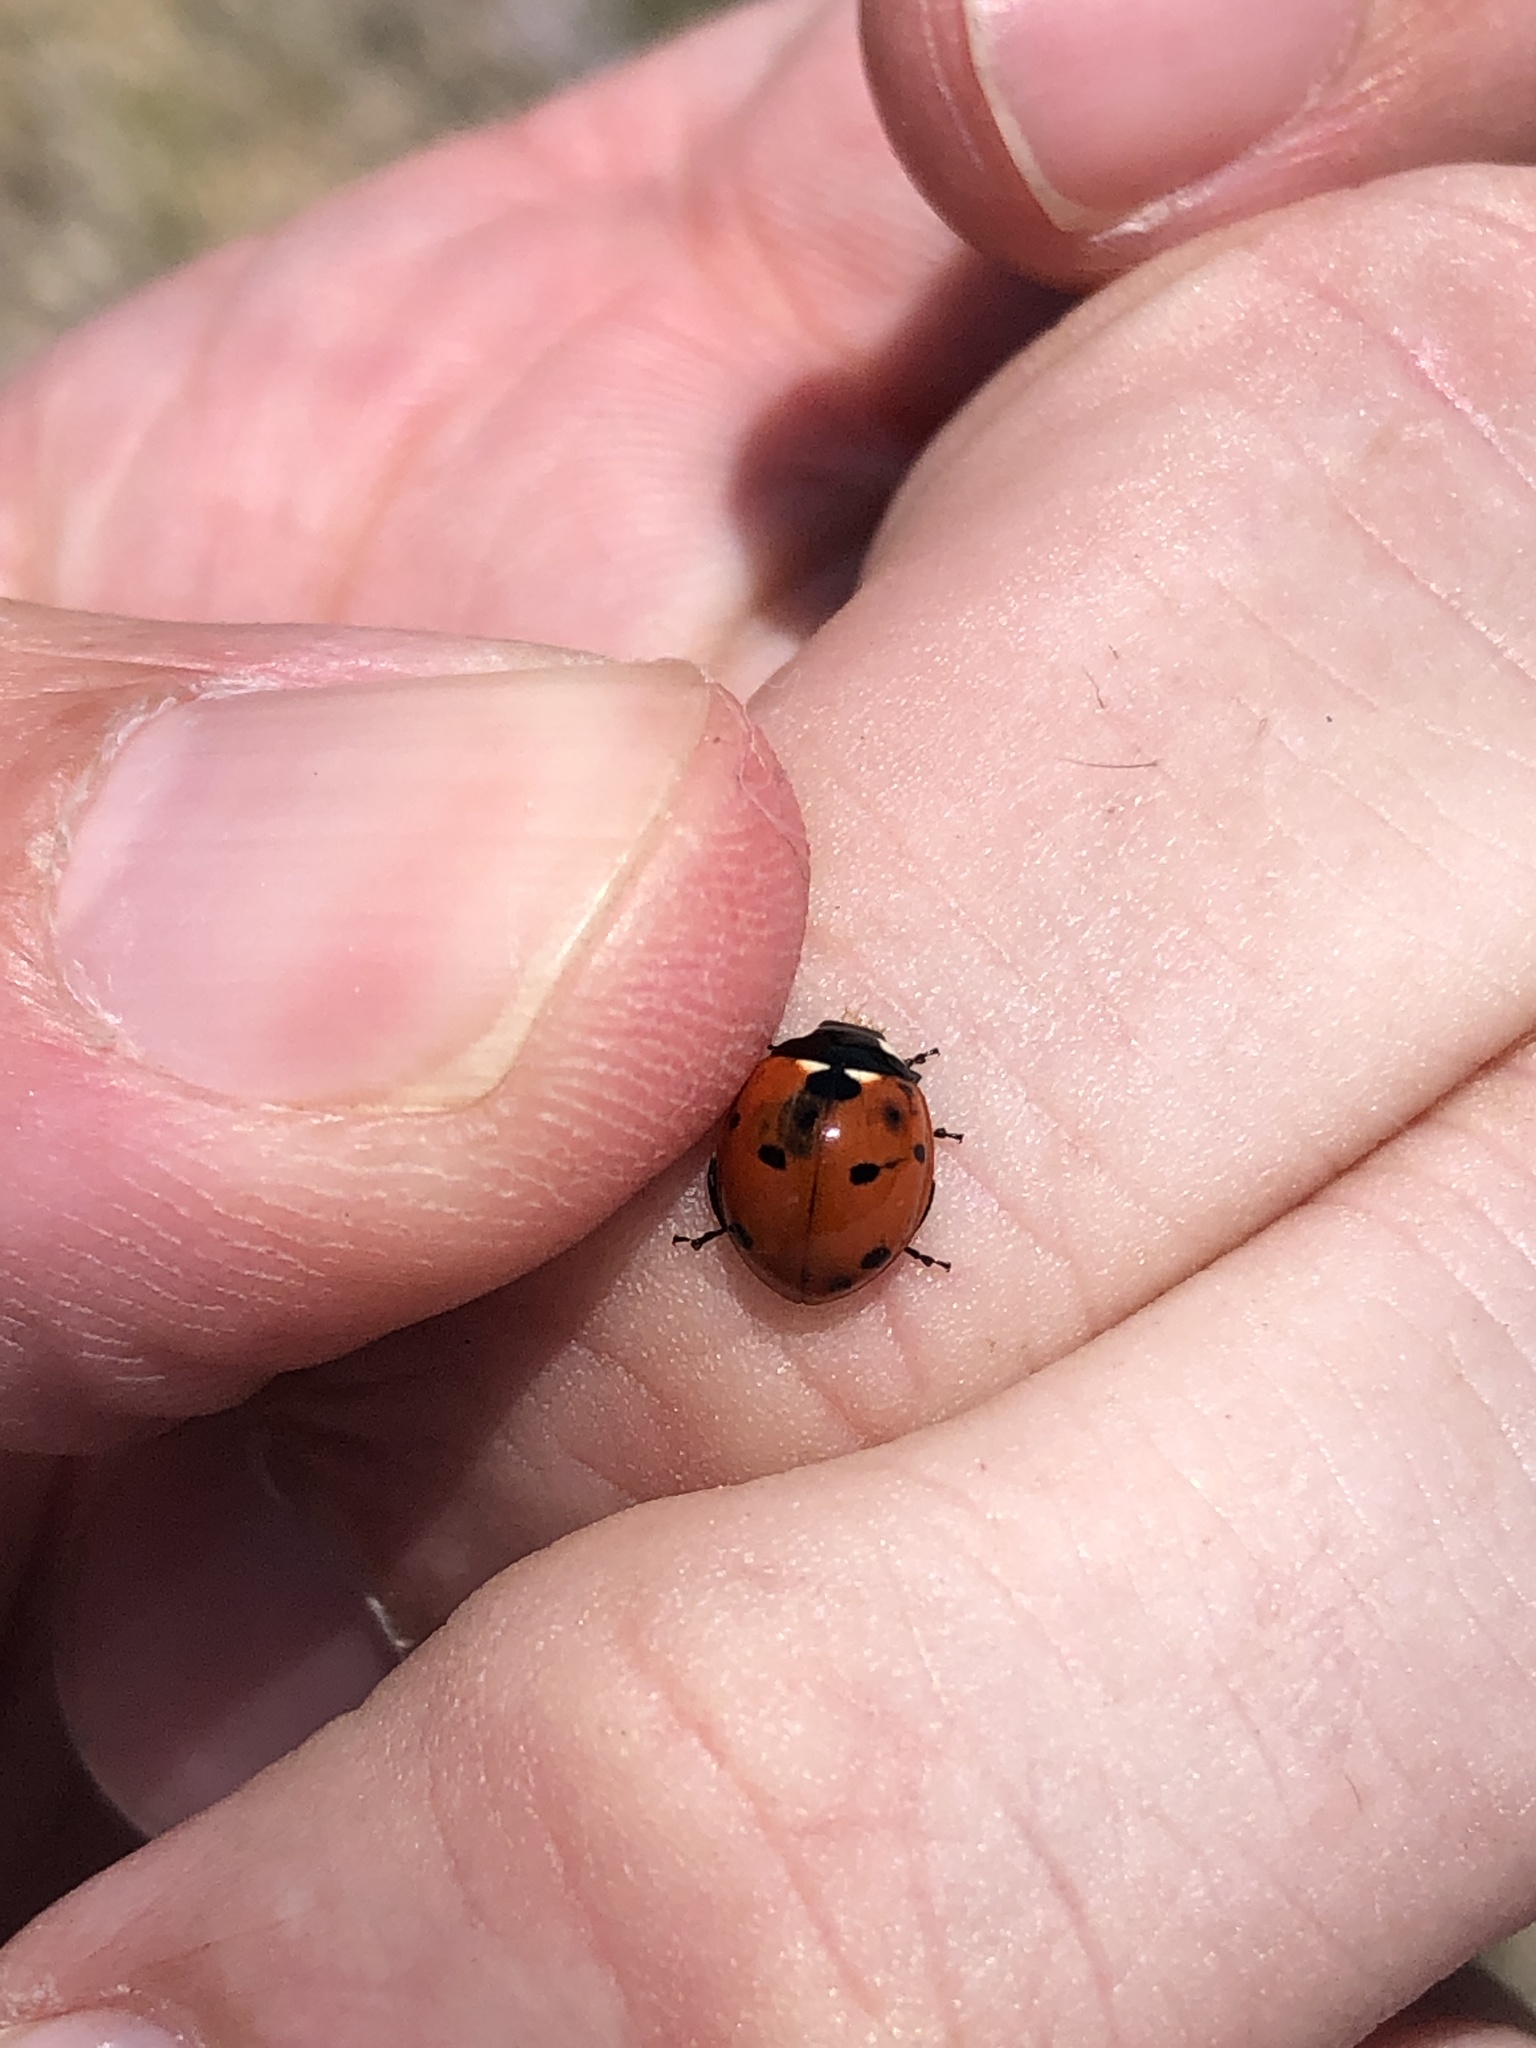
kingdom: Animalia
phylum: Arthropoda
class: Insecta
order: Coleoptera
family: Coccinellidae
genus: Coccinella
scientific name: Coccinella septempunctata
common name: Sevenspotted lady beetle
